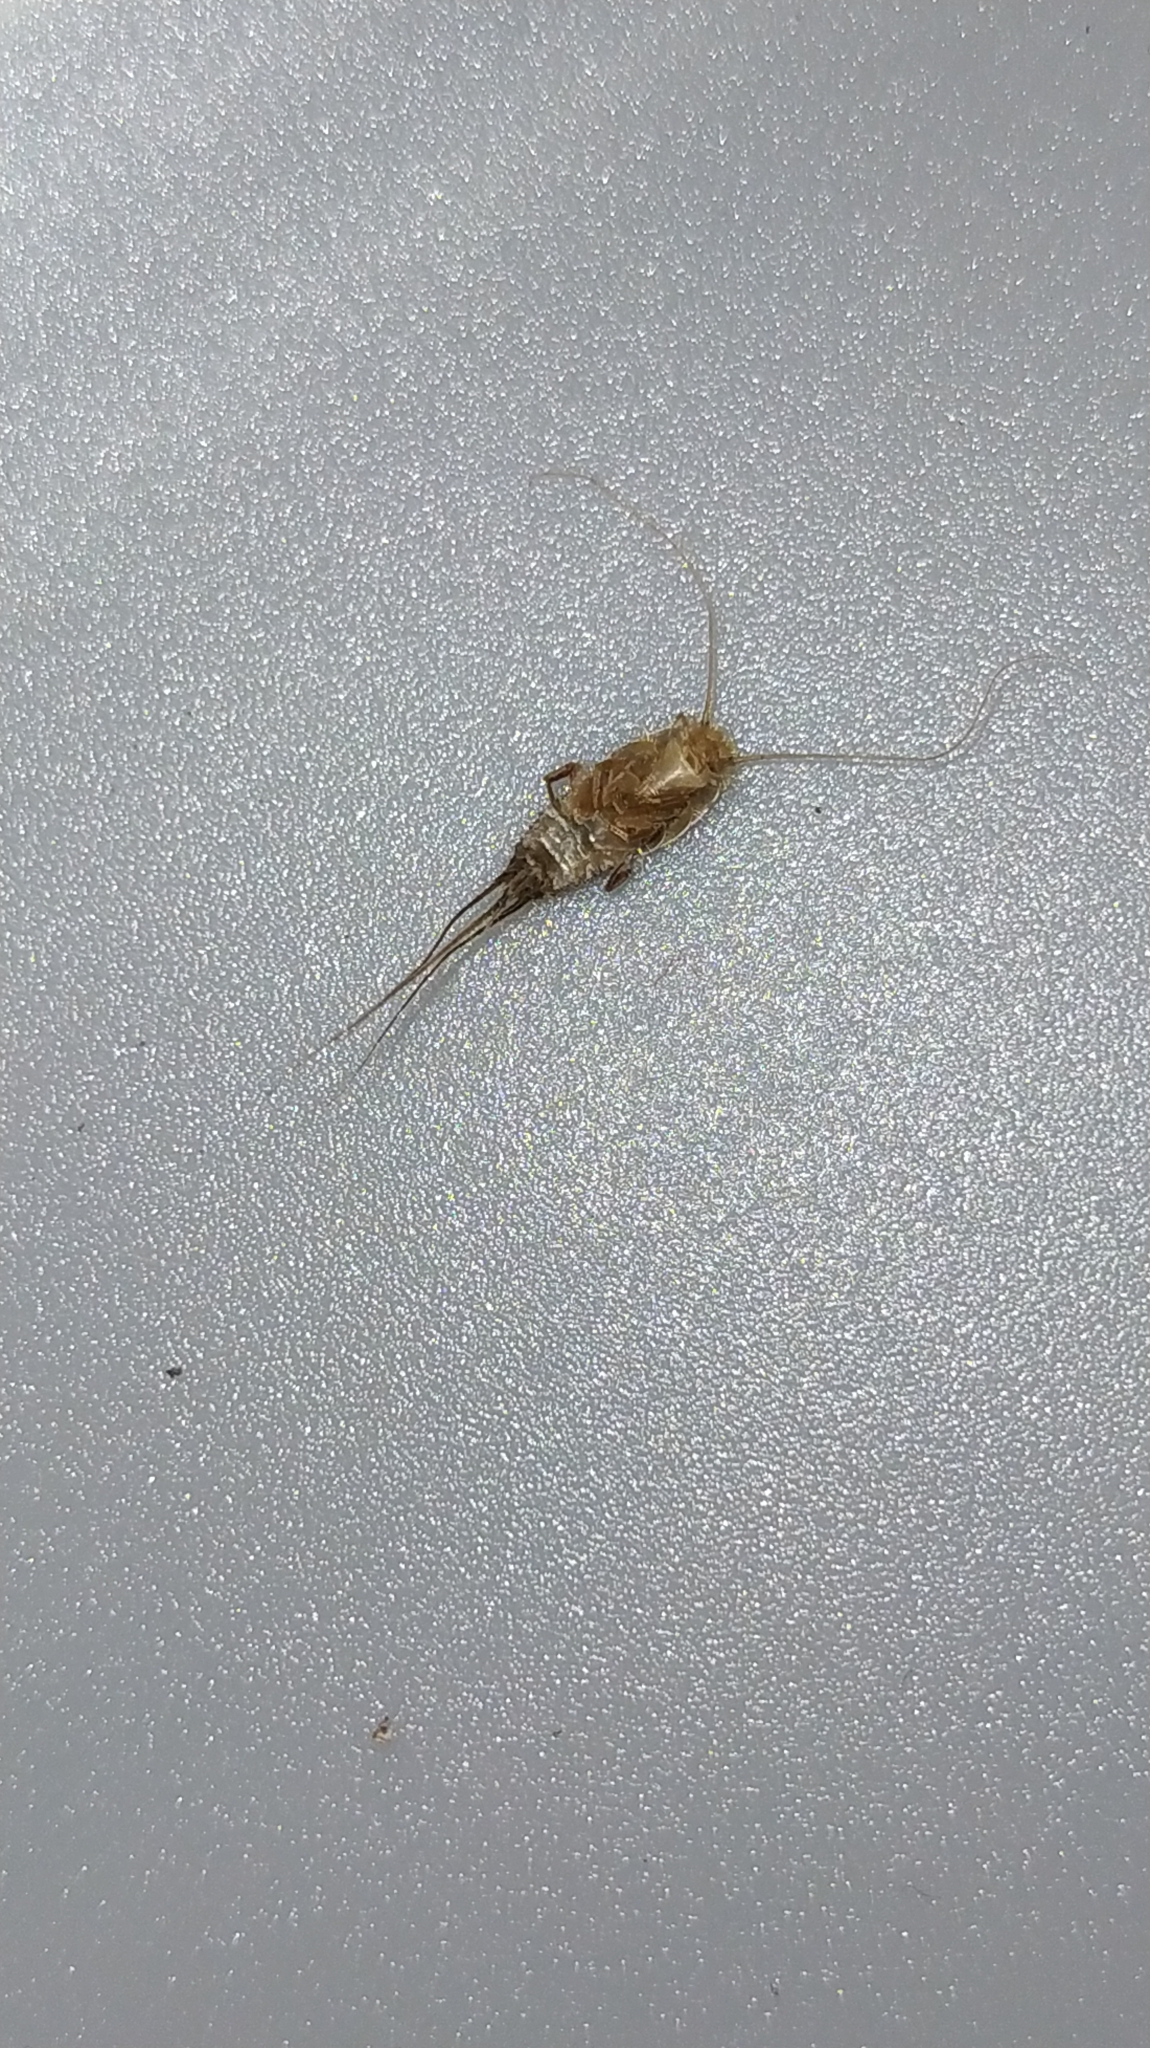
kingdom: Animalia
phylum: Arthropoda
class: Insecta
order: Zygentoma
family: Lepismatidae
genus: Ctenolepisma
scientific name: Ctenolepisma longicaudatum
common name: Silverfish
